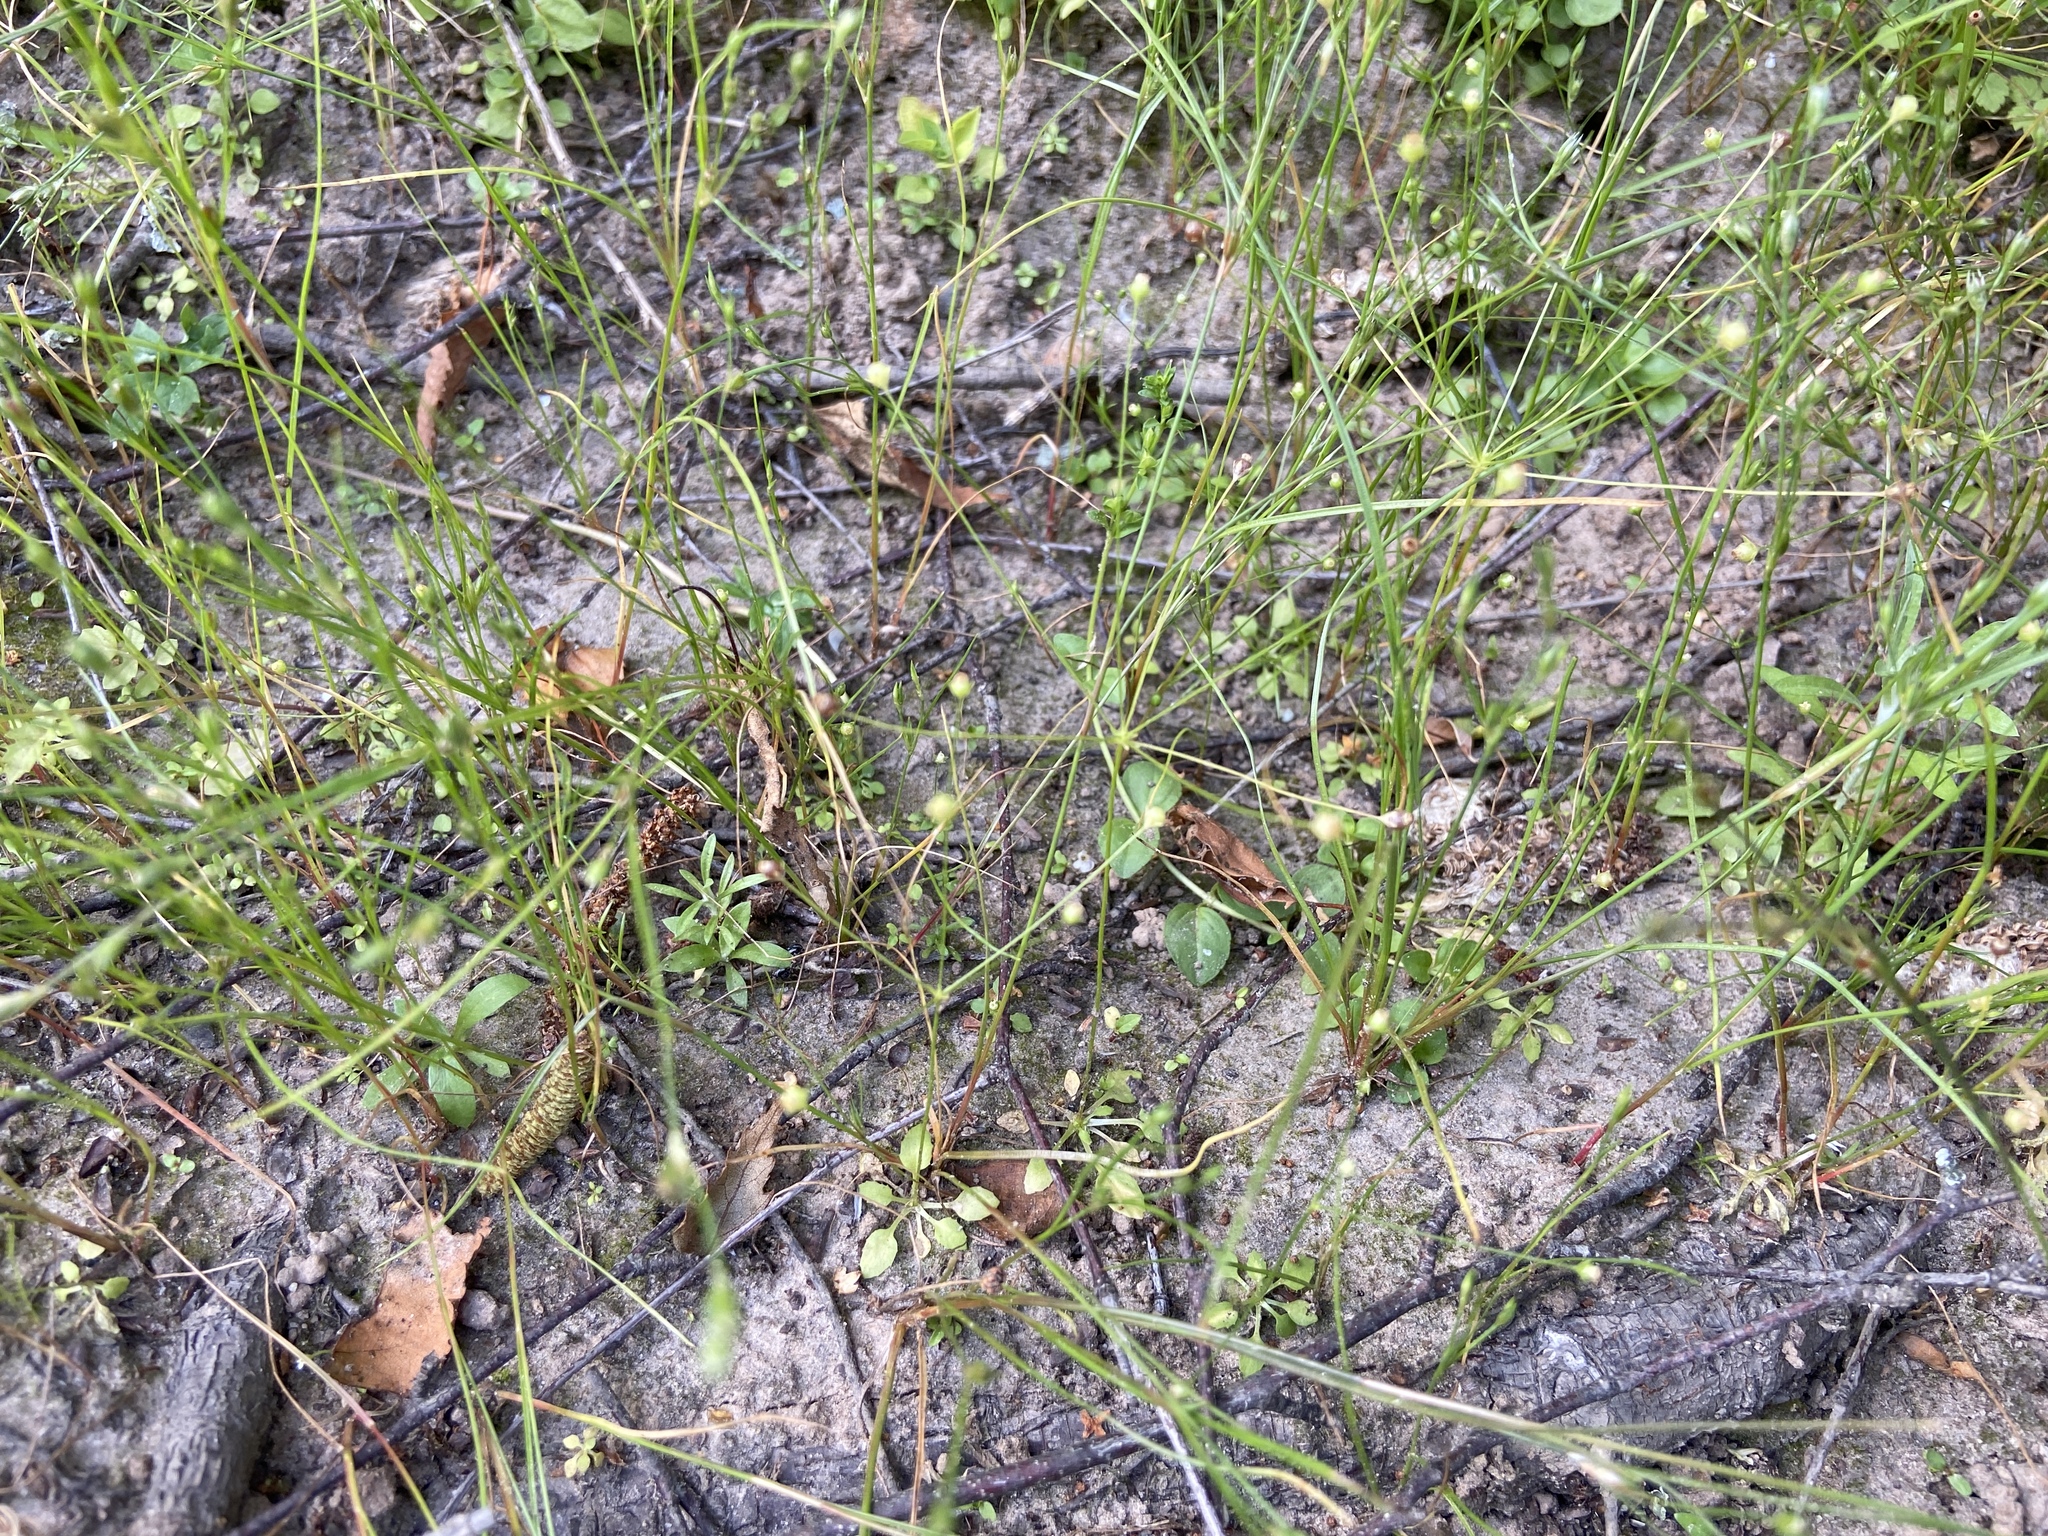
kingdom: Plantae
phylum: Tracheophyta
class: Magnoliopsida
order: Ericales
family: Primulaceae
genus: Androsace
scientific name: Androsace filiformis
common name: Filiform rock jasmine
